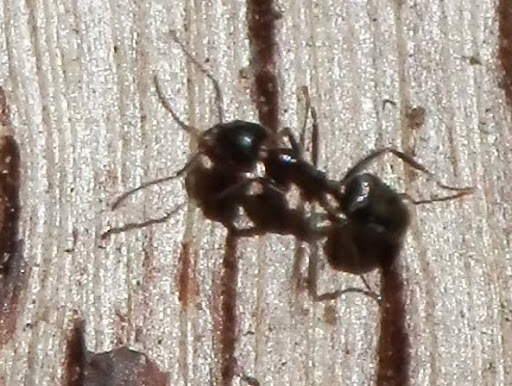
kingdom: Animalia
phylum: Arthropoda
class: Insecta
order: Hymenoptera
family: Formicidae
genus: Liometopum
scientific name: Liometopum luctuosum
